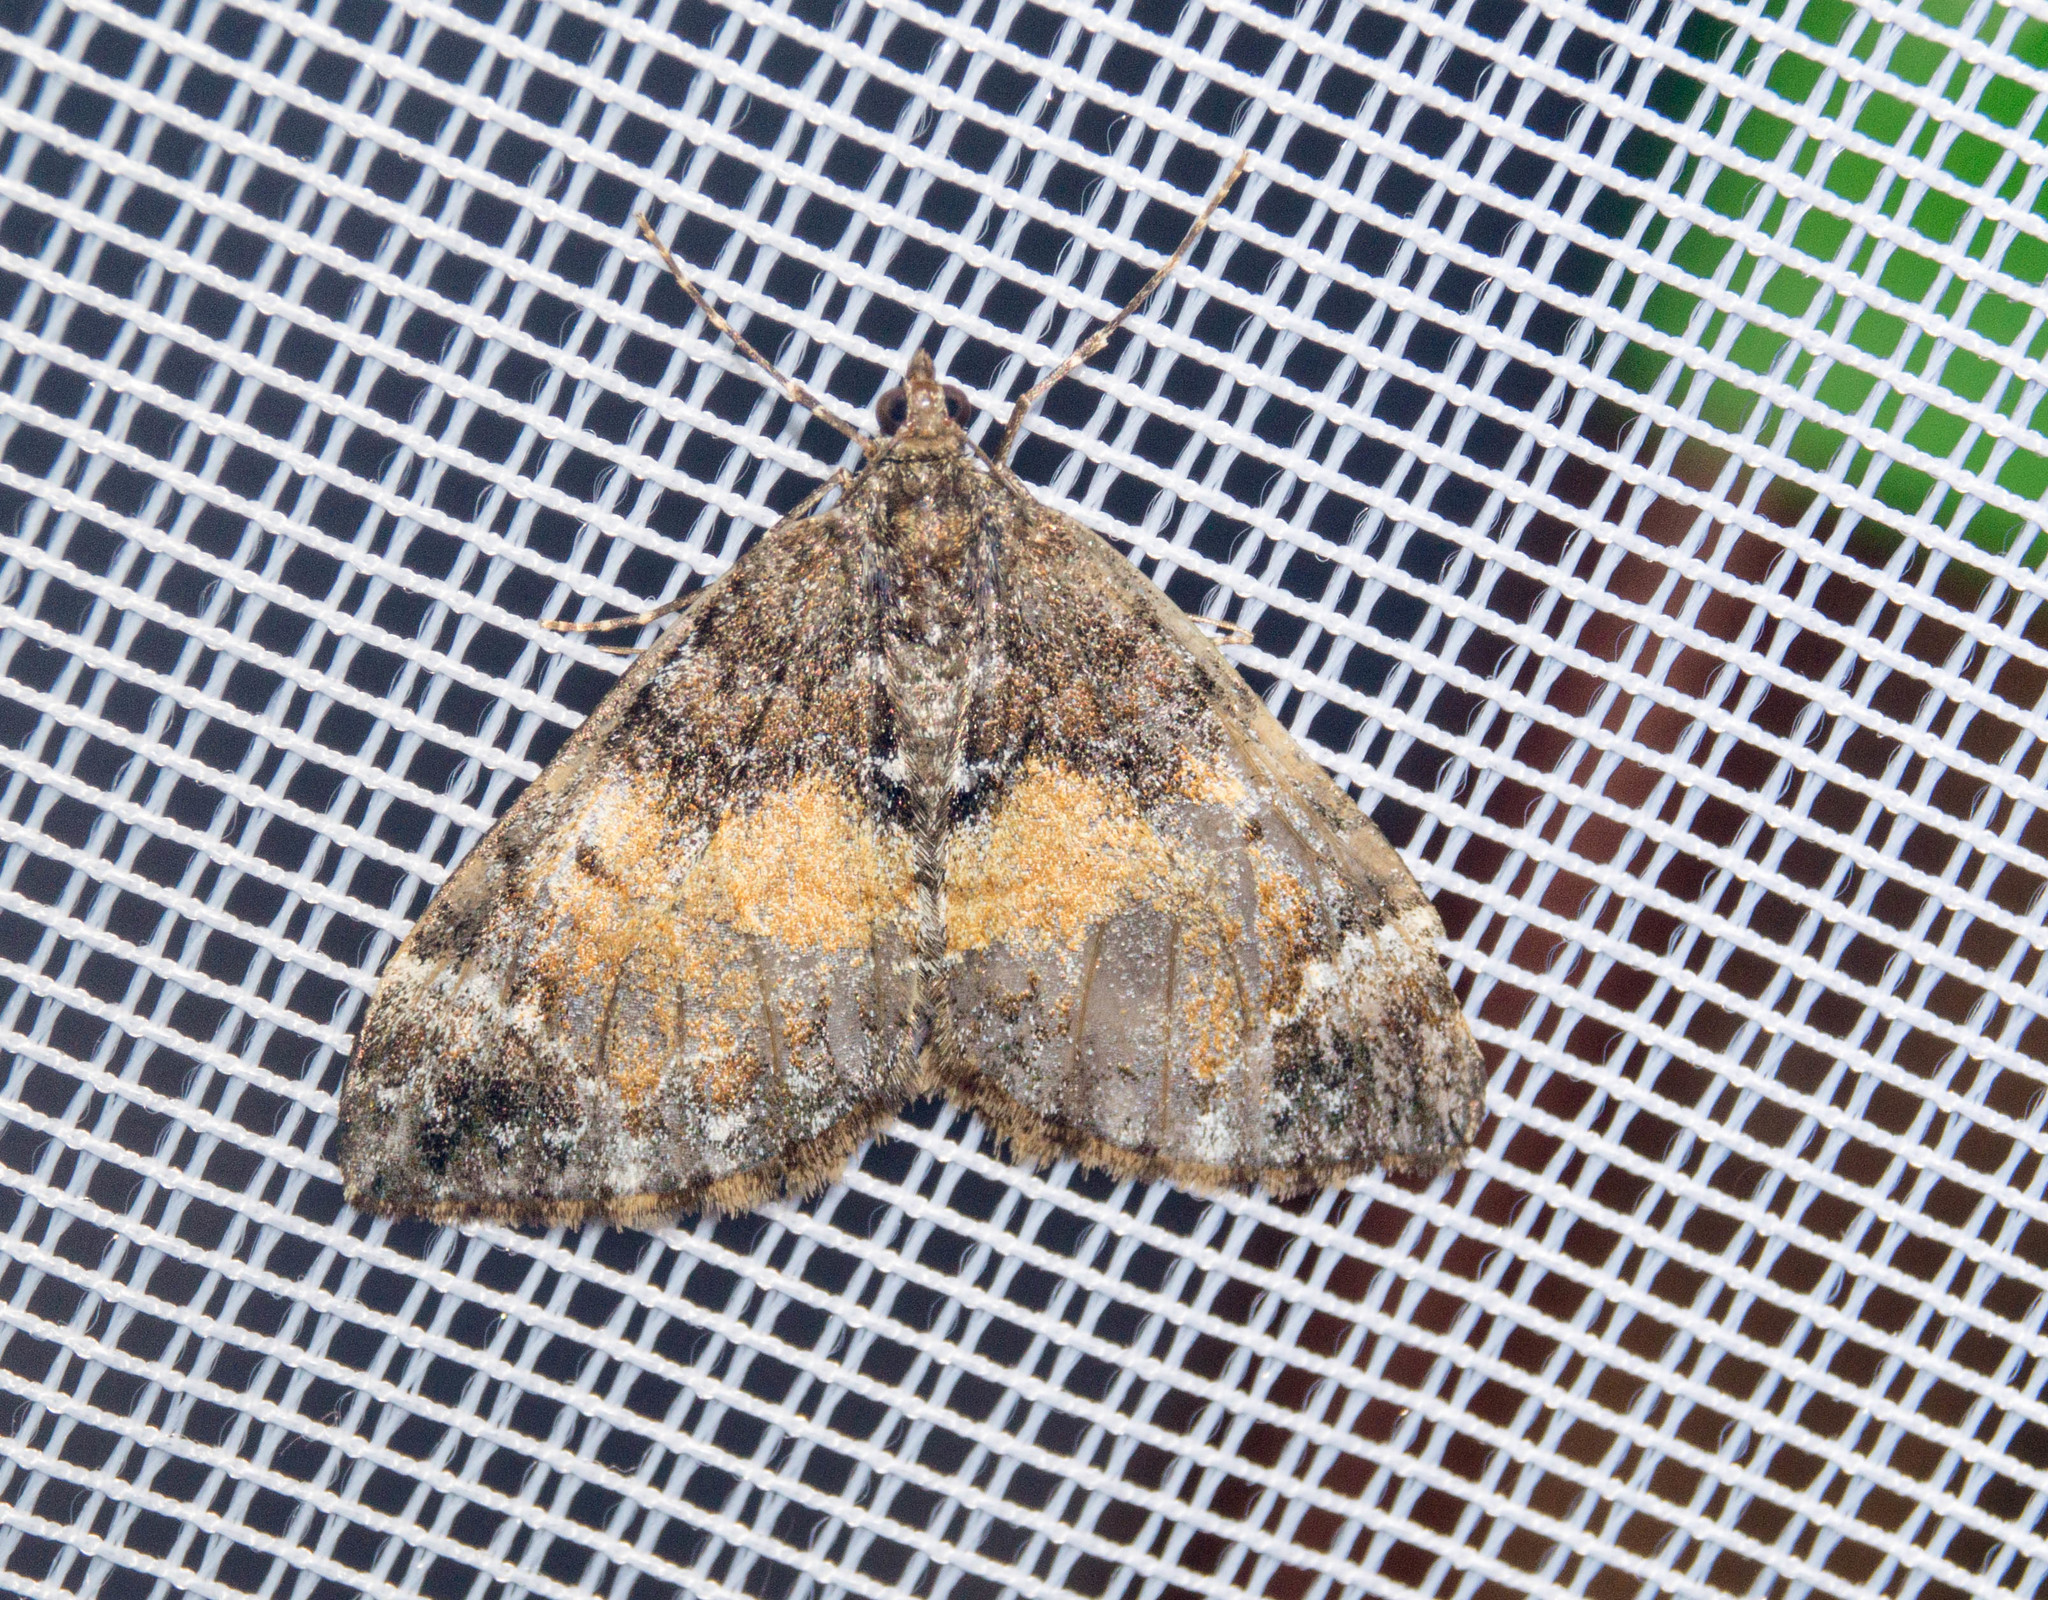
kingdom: Animalia
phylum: Arthropoda
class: Insecta
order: Lepidoptera
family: Geometridae
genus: Dysstroma
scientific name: Dysstroma truncata
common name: Common marbled carpet
